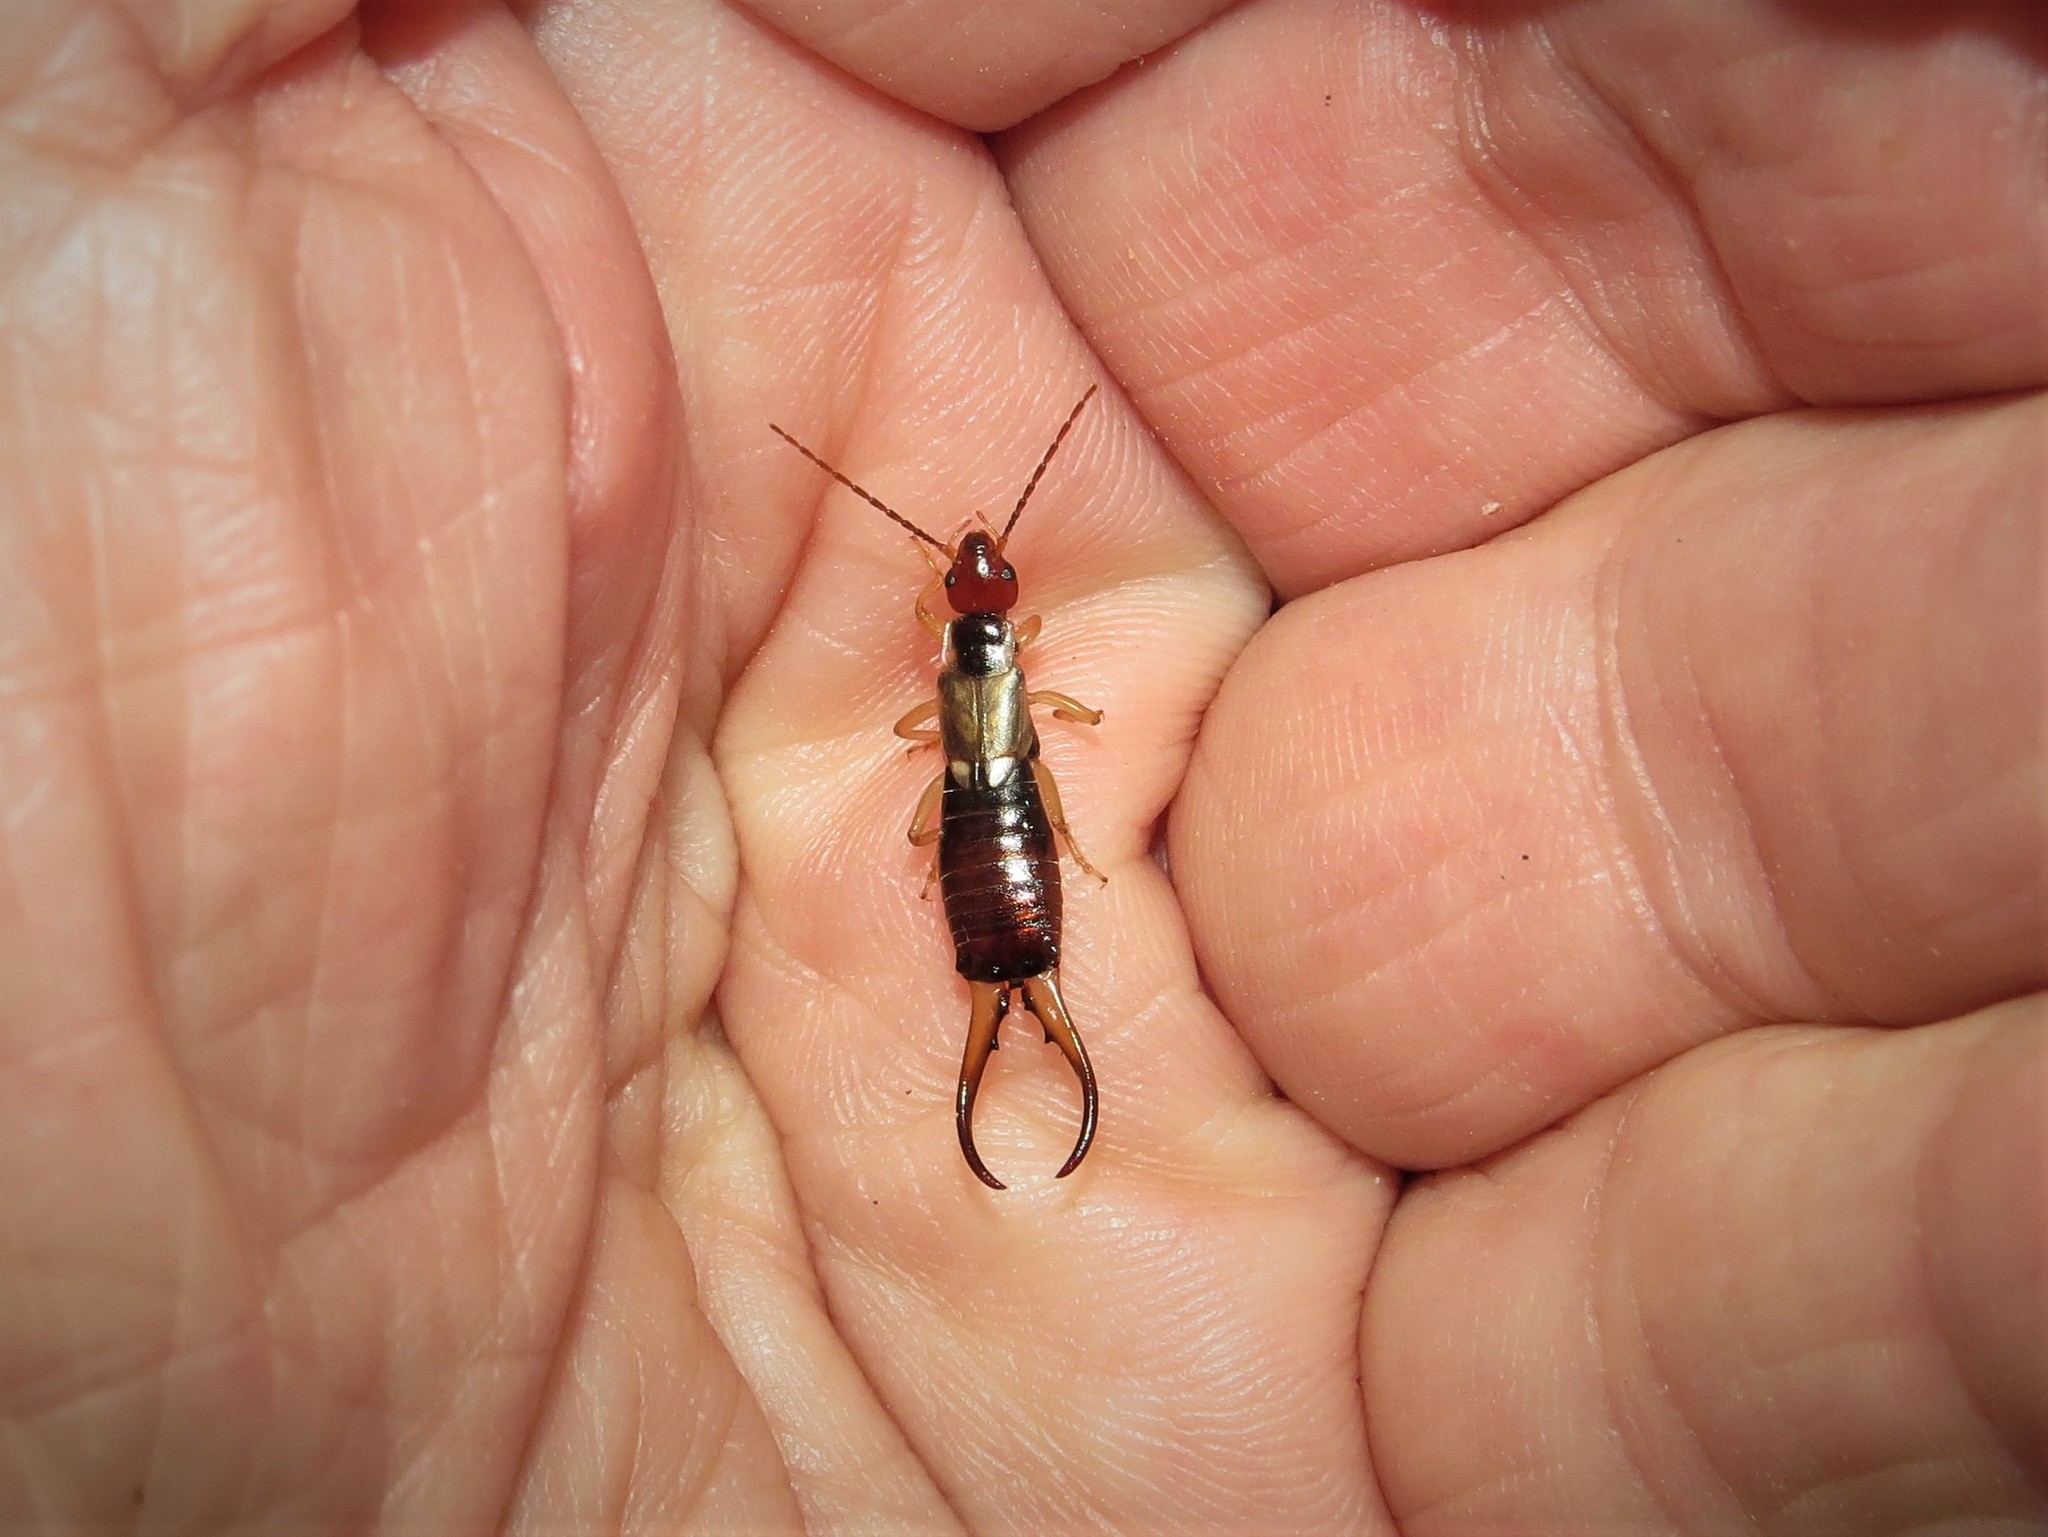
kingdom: Animalia
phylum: Arthropoda
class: Insecta
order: Dermaptera
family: Forficulidae
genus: Forficula
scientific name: Forficula
